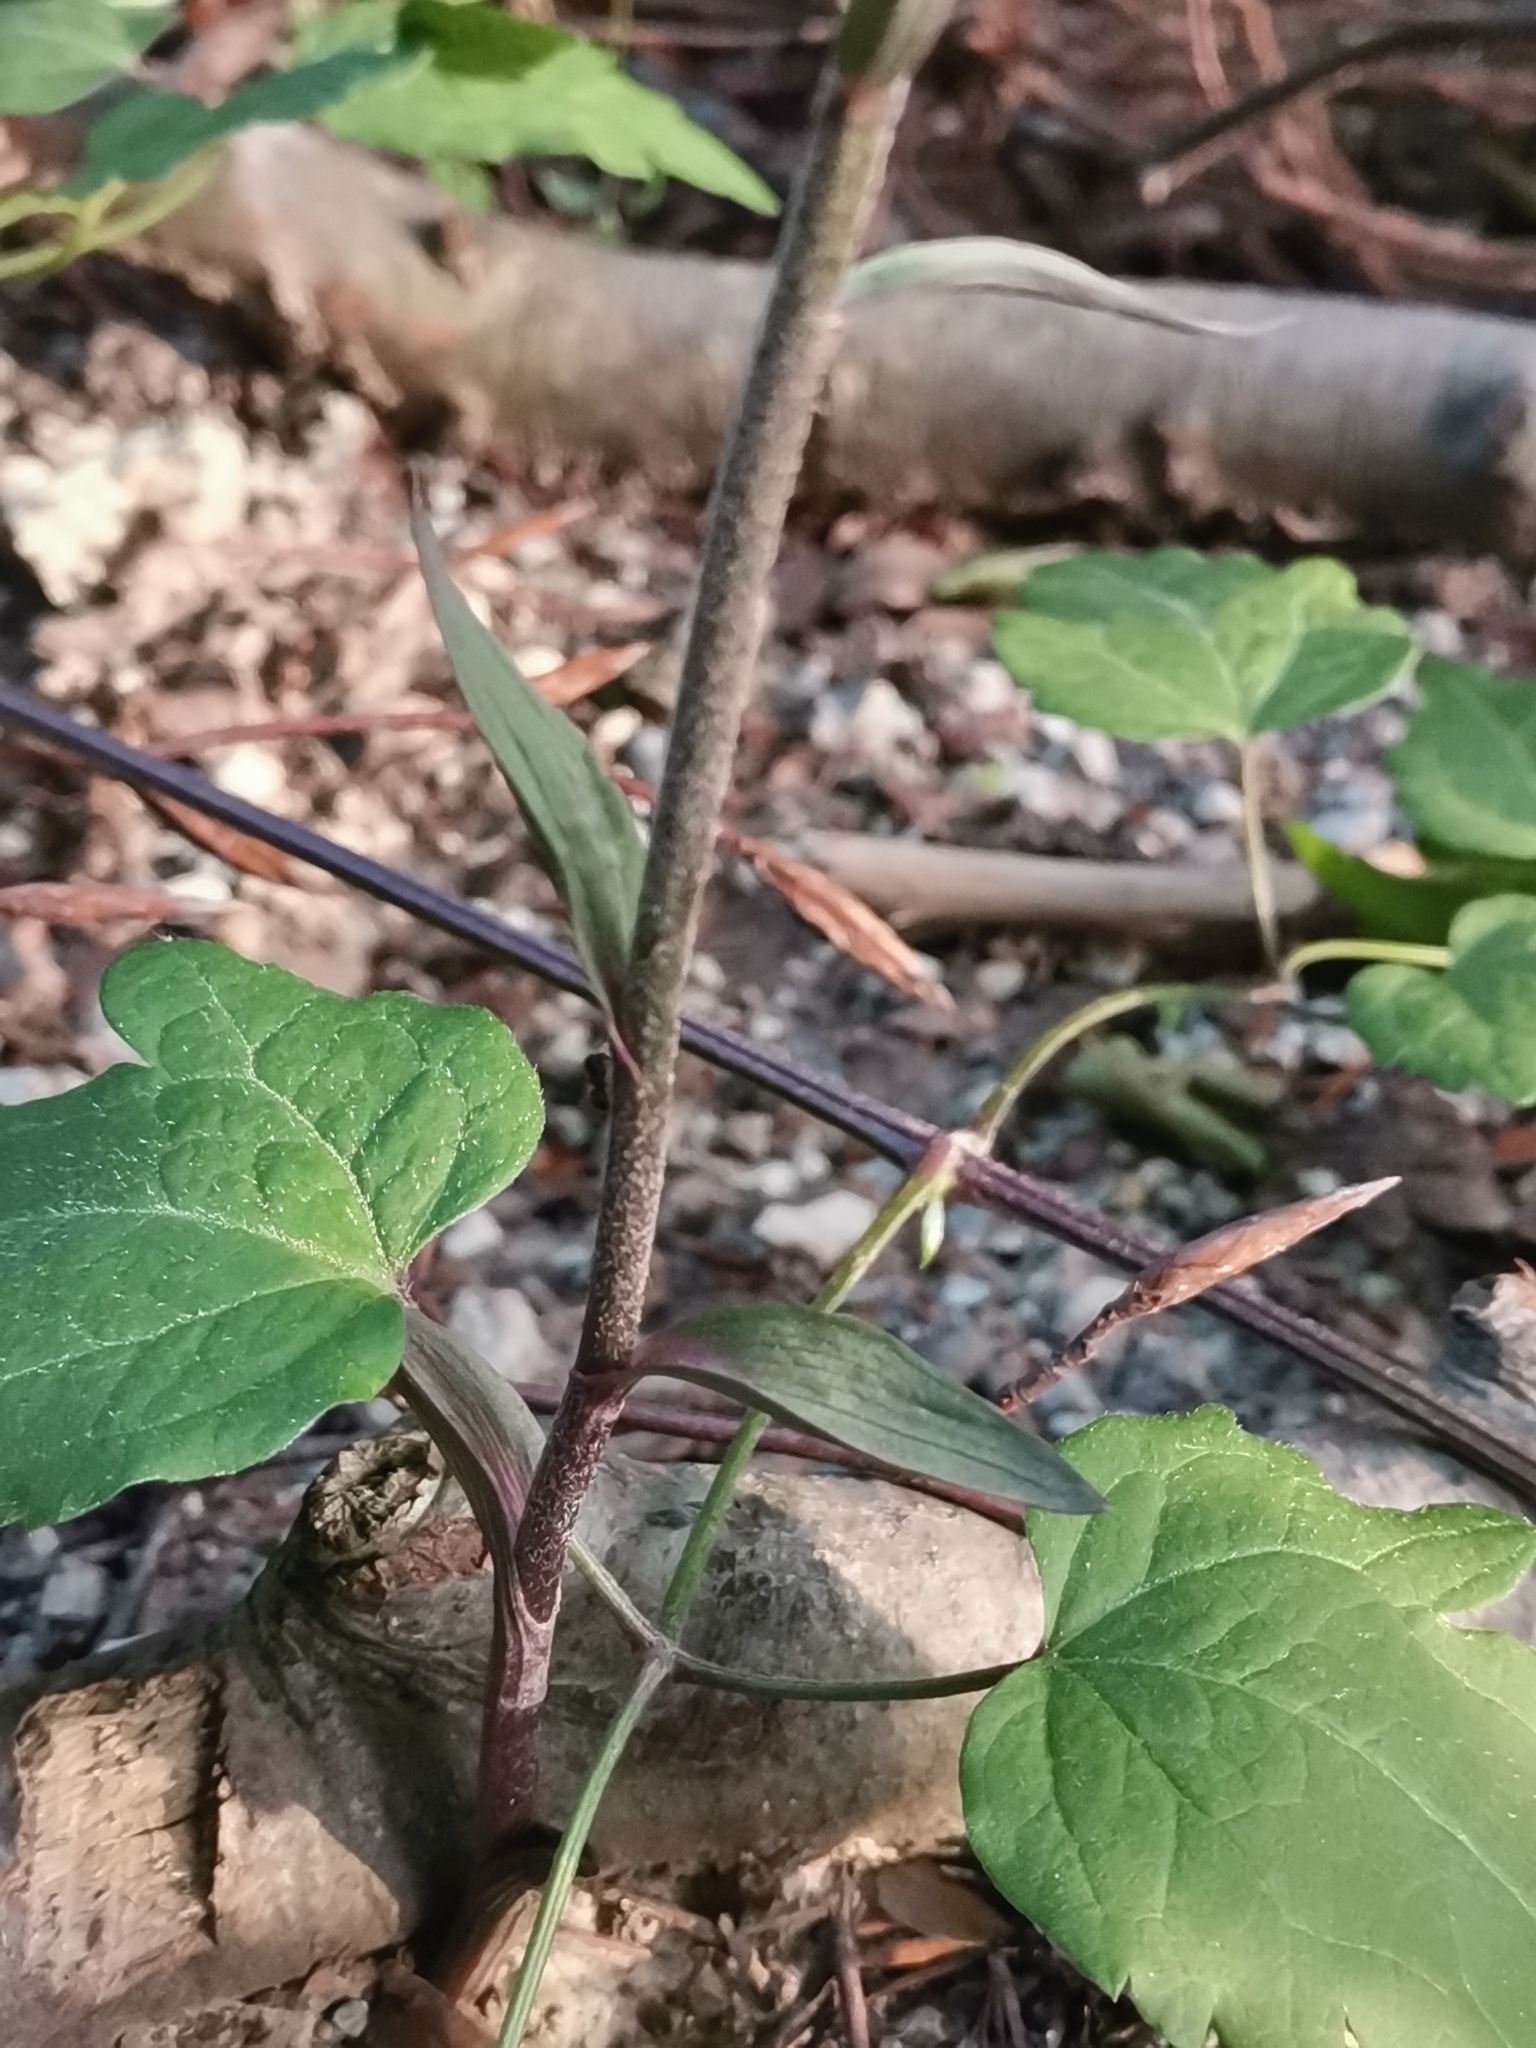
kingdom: Plantae
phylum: Tracheophyta
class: Liliopsida
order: Asparagales
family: Orchidaceae
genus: Epipactis
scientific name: Epipactis microphylla
